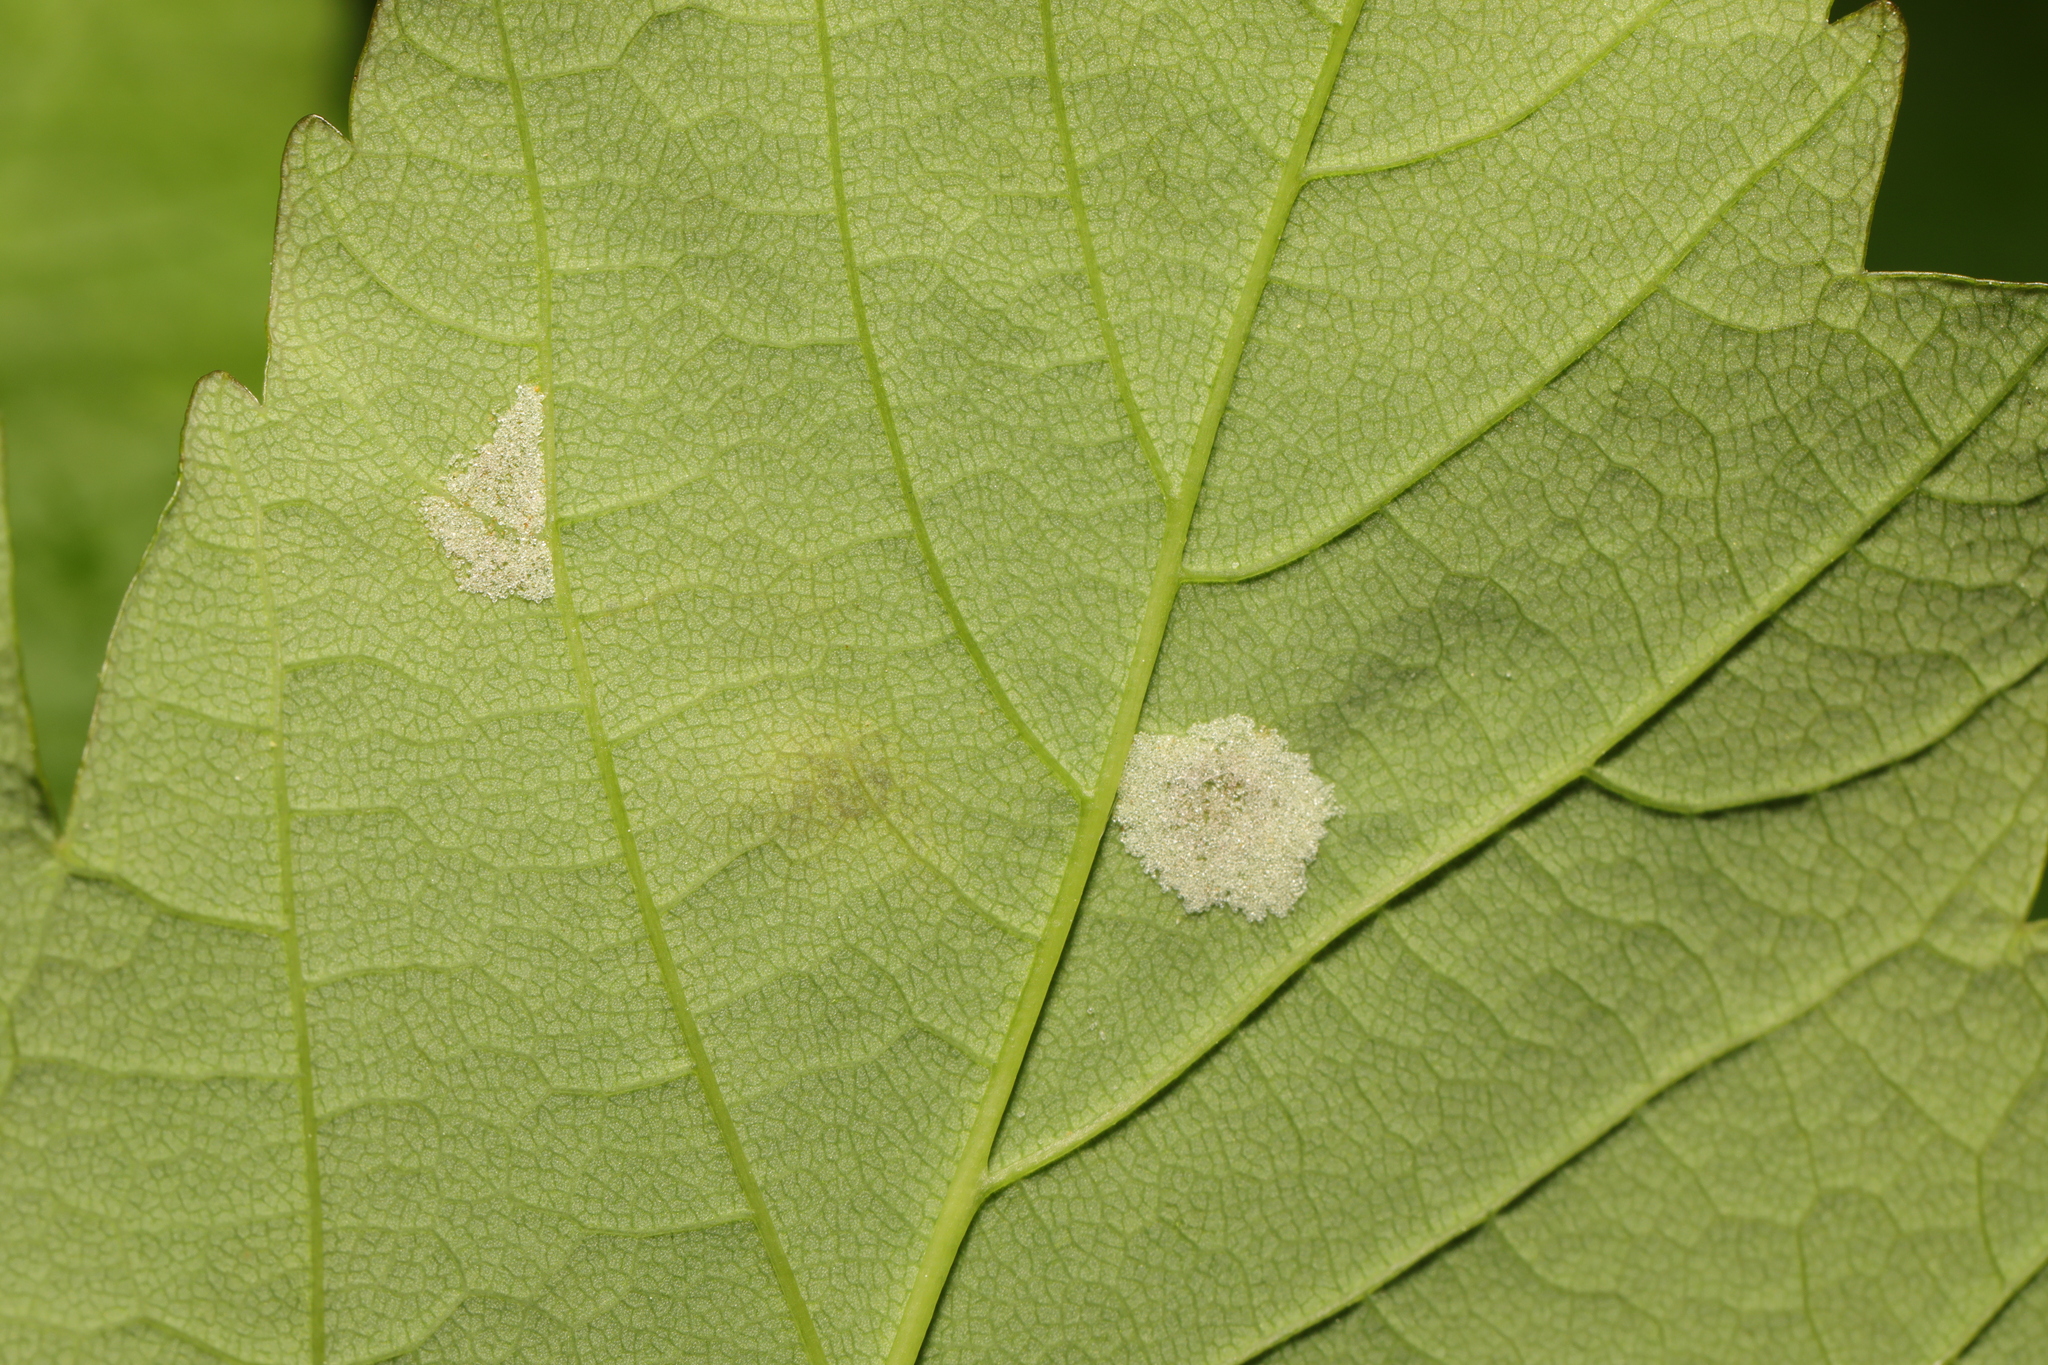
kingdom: Animalia
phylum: Arthropoda
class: Arachnida
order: Trombidiformes
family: Eriophyidae
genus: Aceria
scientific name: Aceria pseudoplatani
